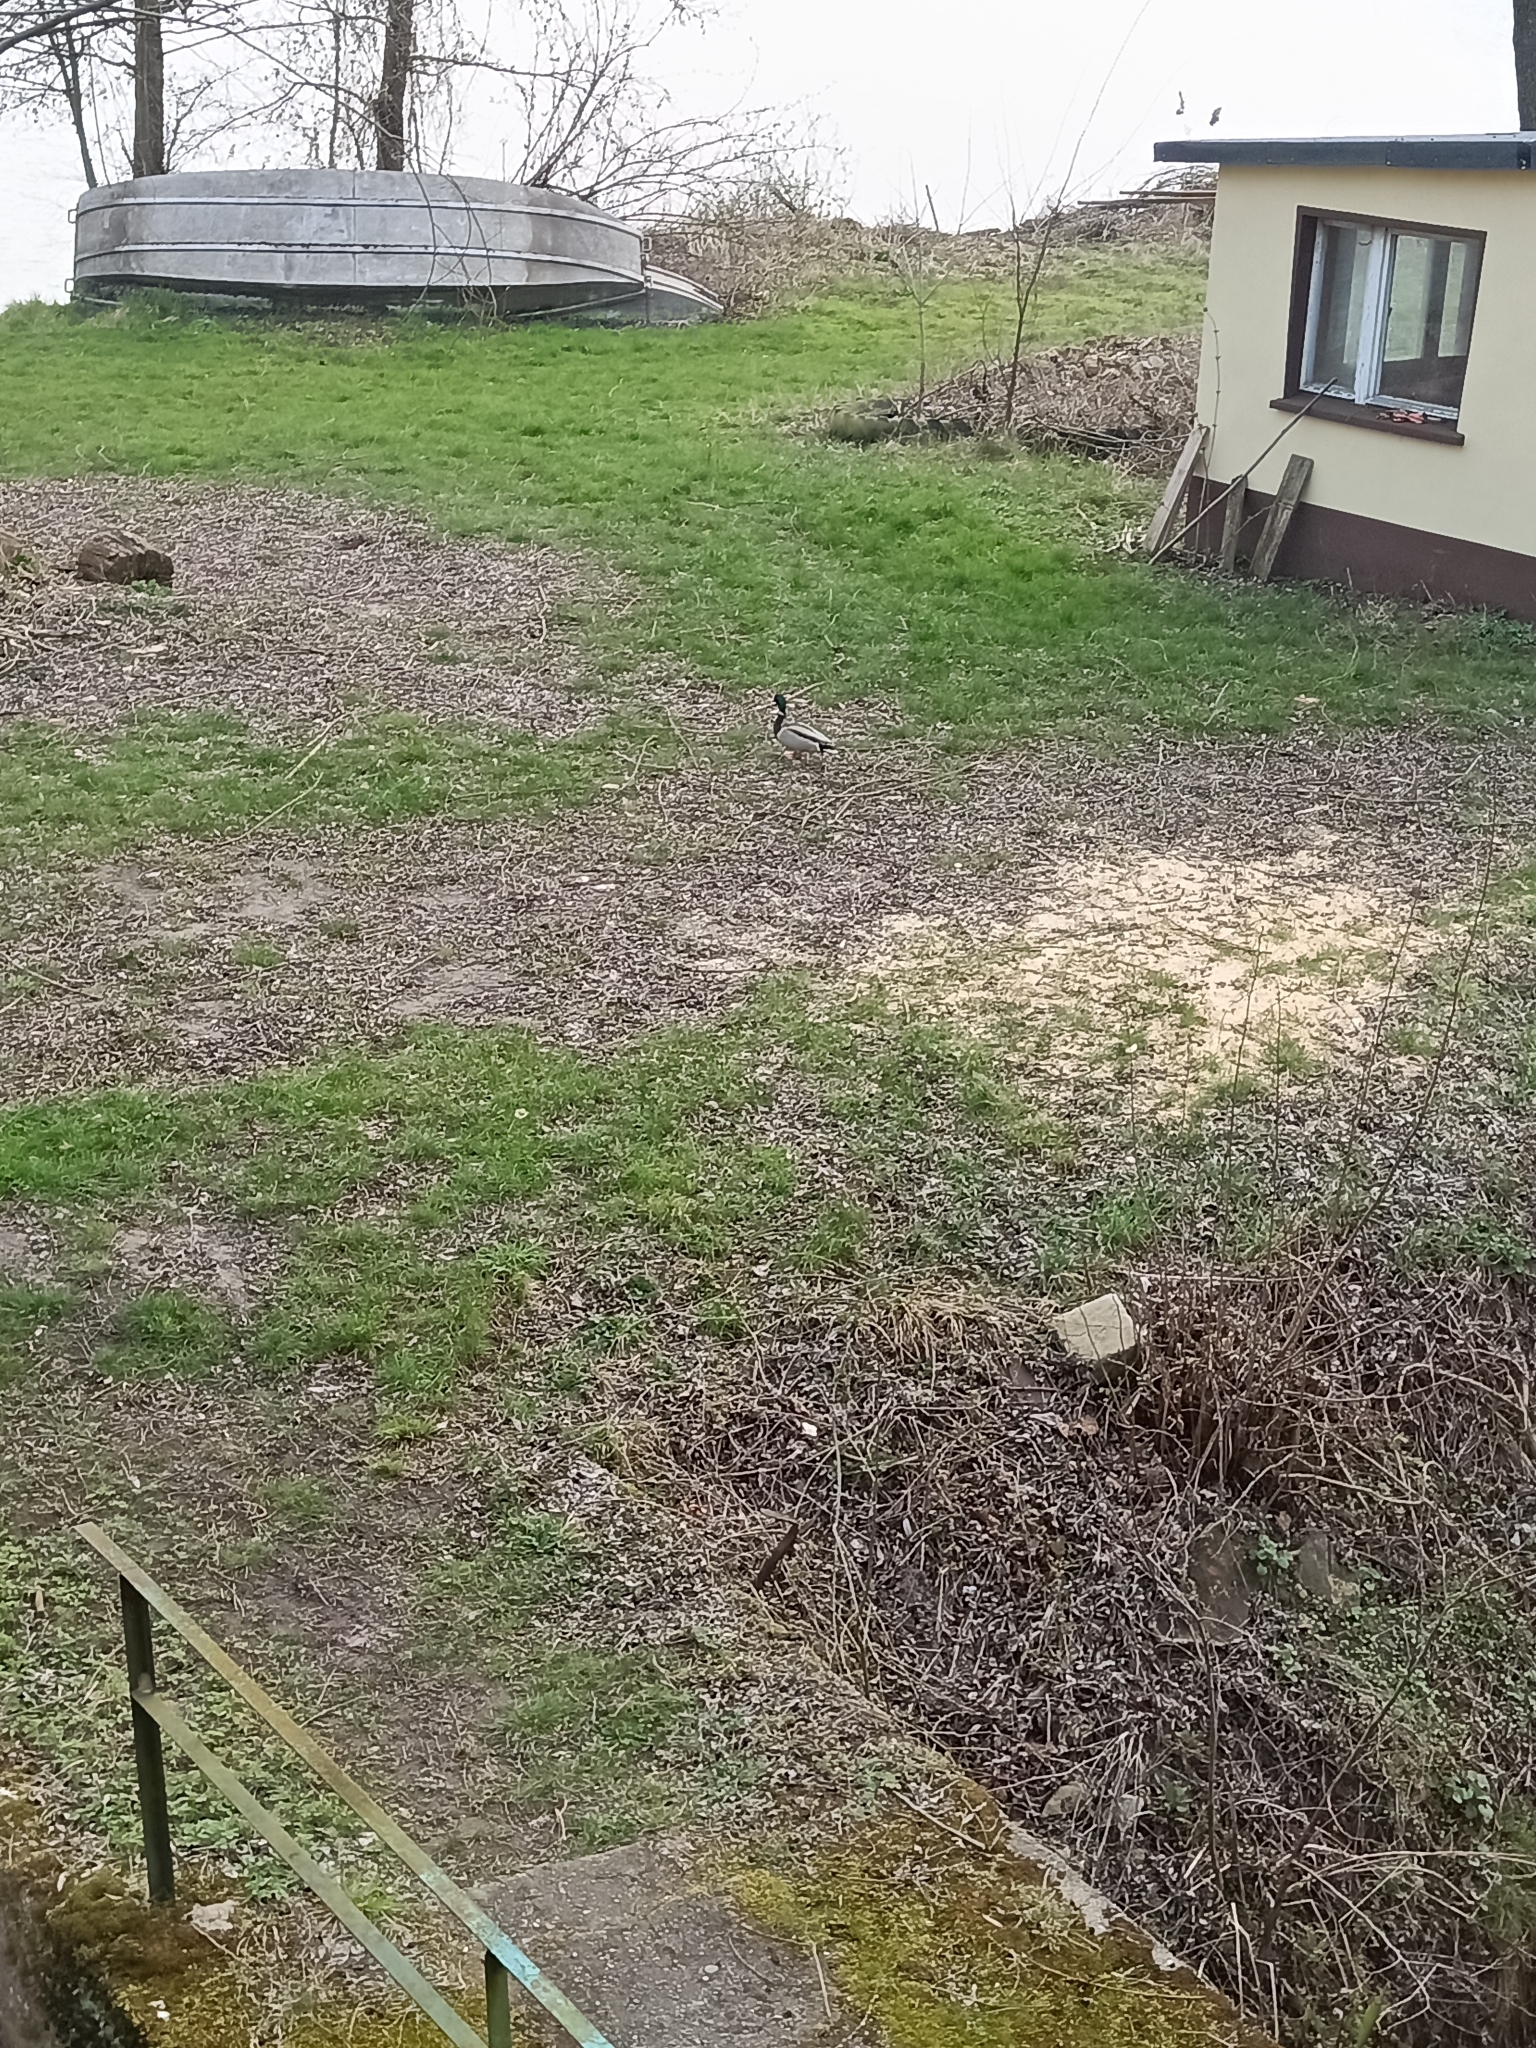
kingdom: Animalia
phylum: Chordata
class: Aves
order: Anseriformes
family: Anatidae
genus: Anas
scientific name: Anas platyrhynchos
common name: Mallard
